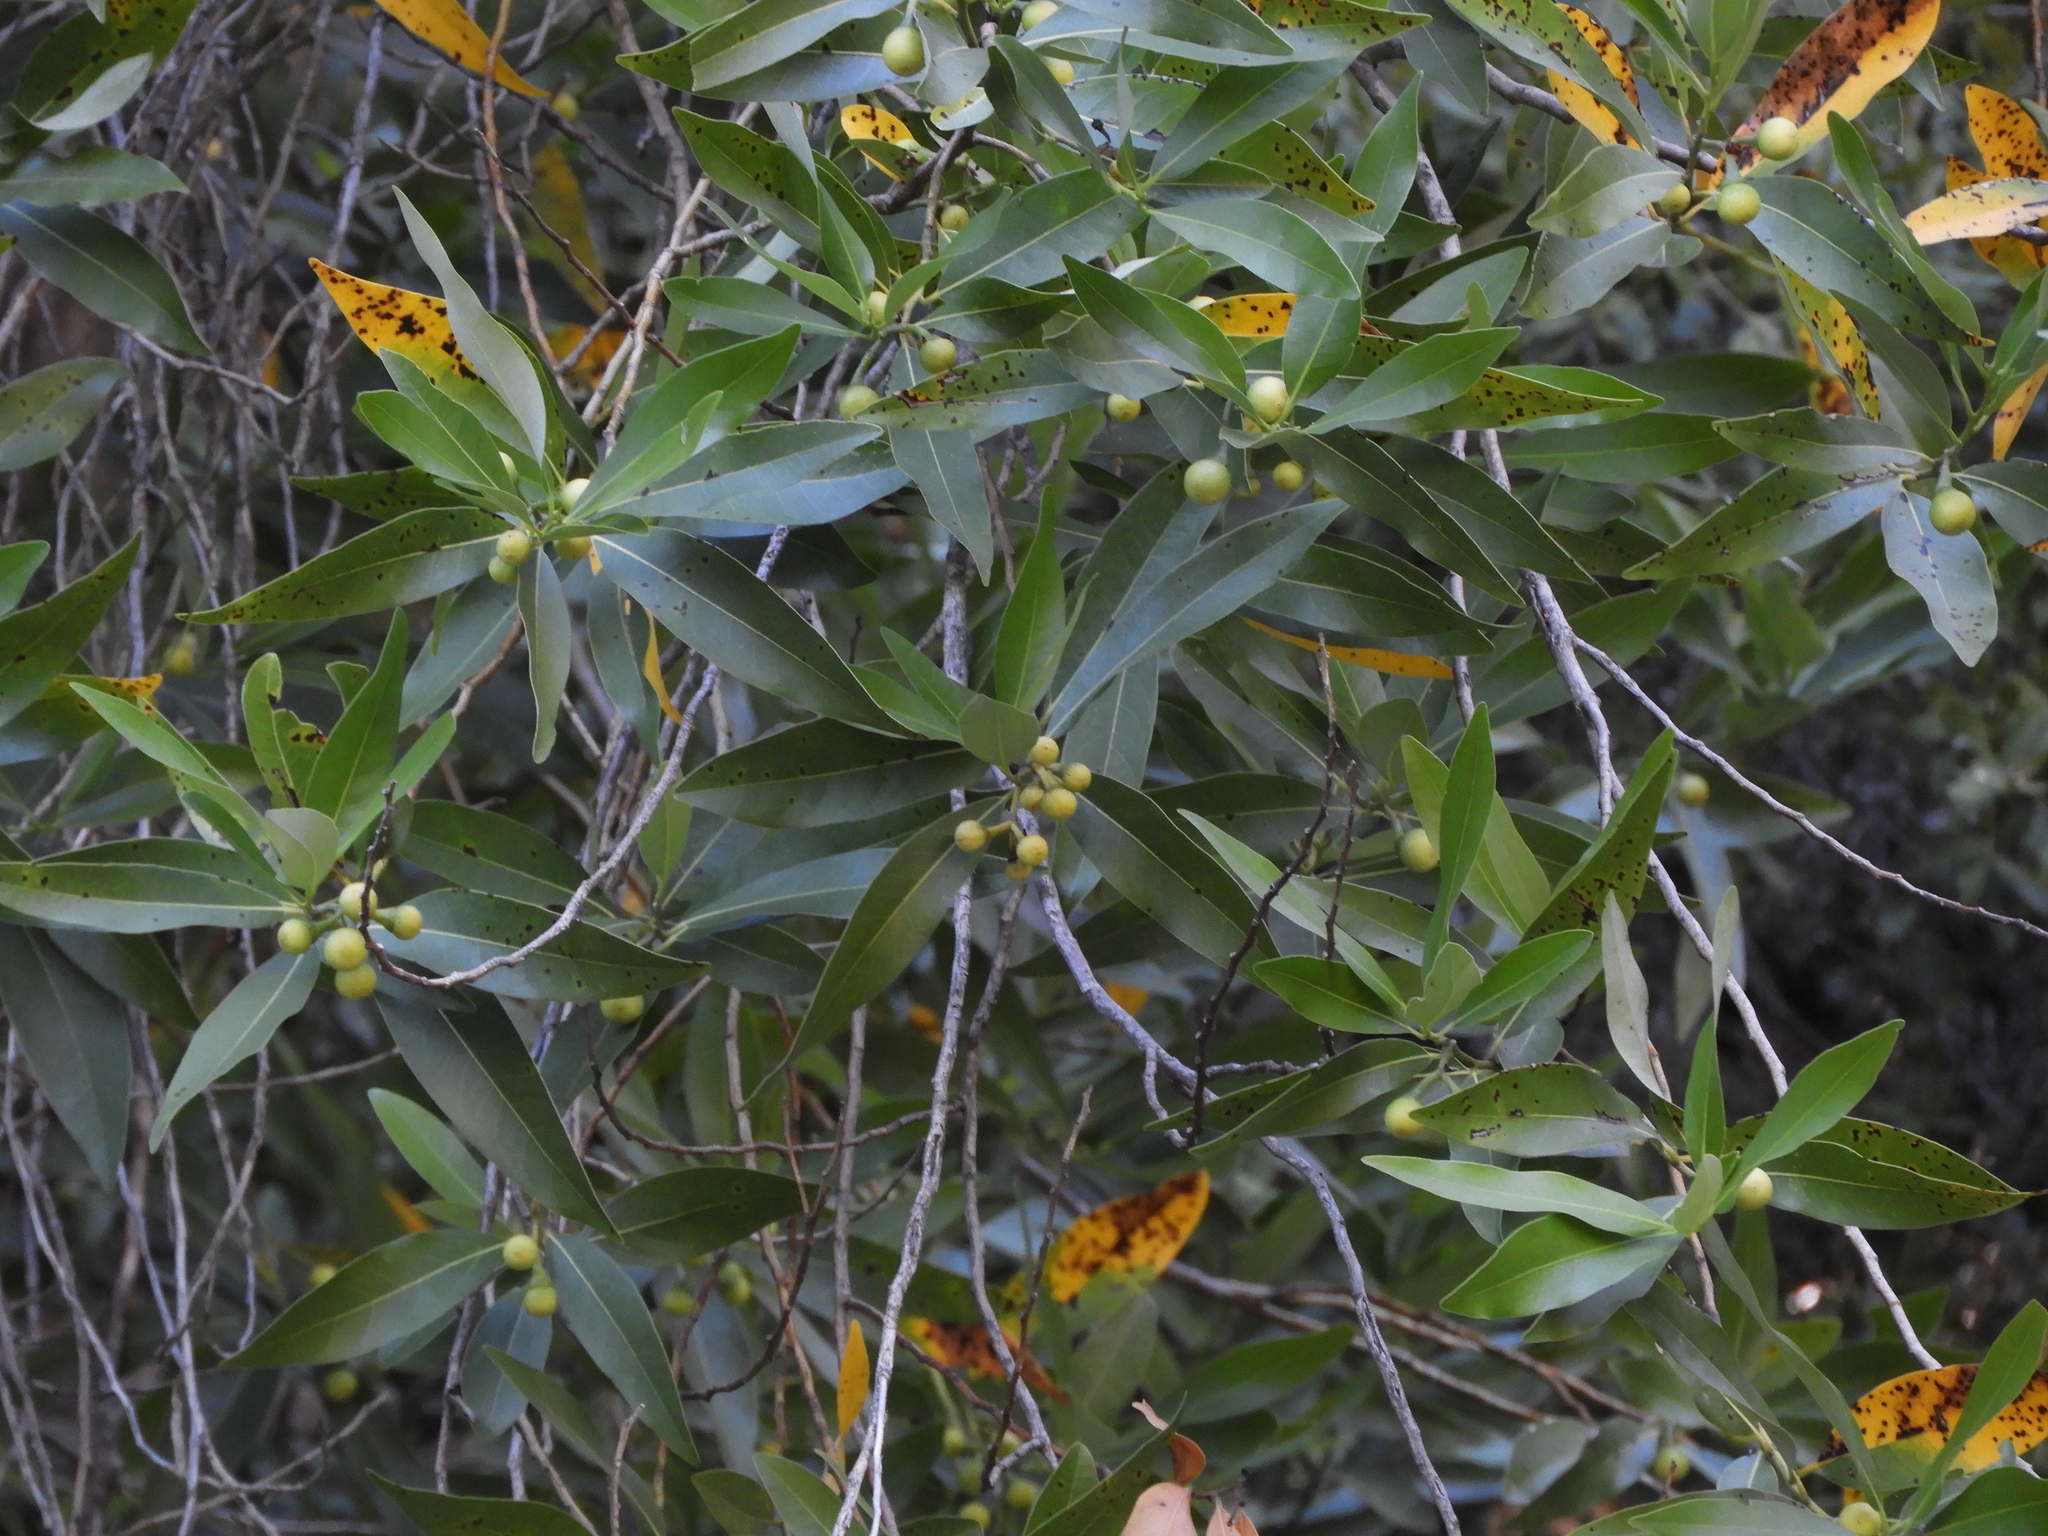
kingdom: Plantae
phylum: Tracheophyta
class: Magnoliopsida
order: Laurales
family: Lauraceae
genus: Umbellularia
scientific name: Umbellularia californica
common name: California bay
